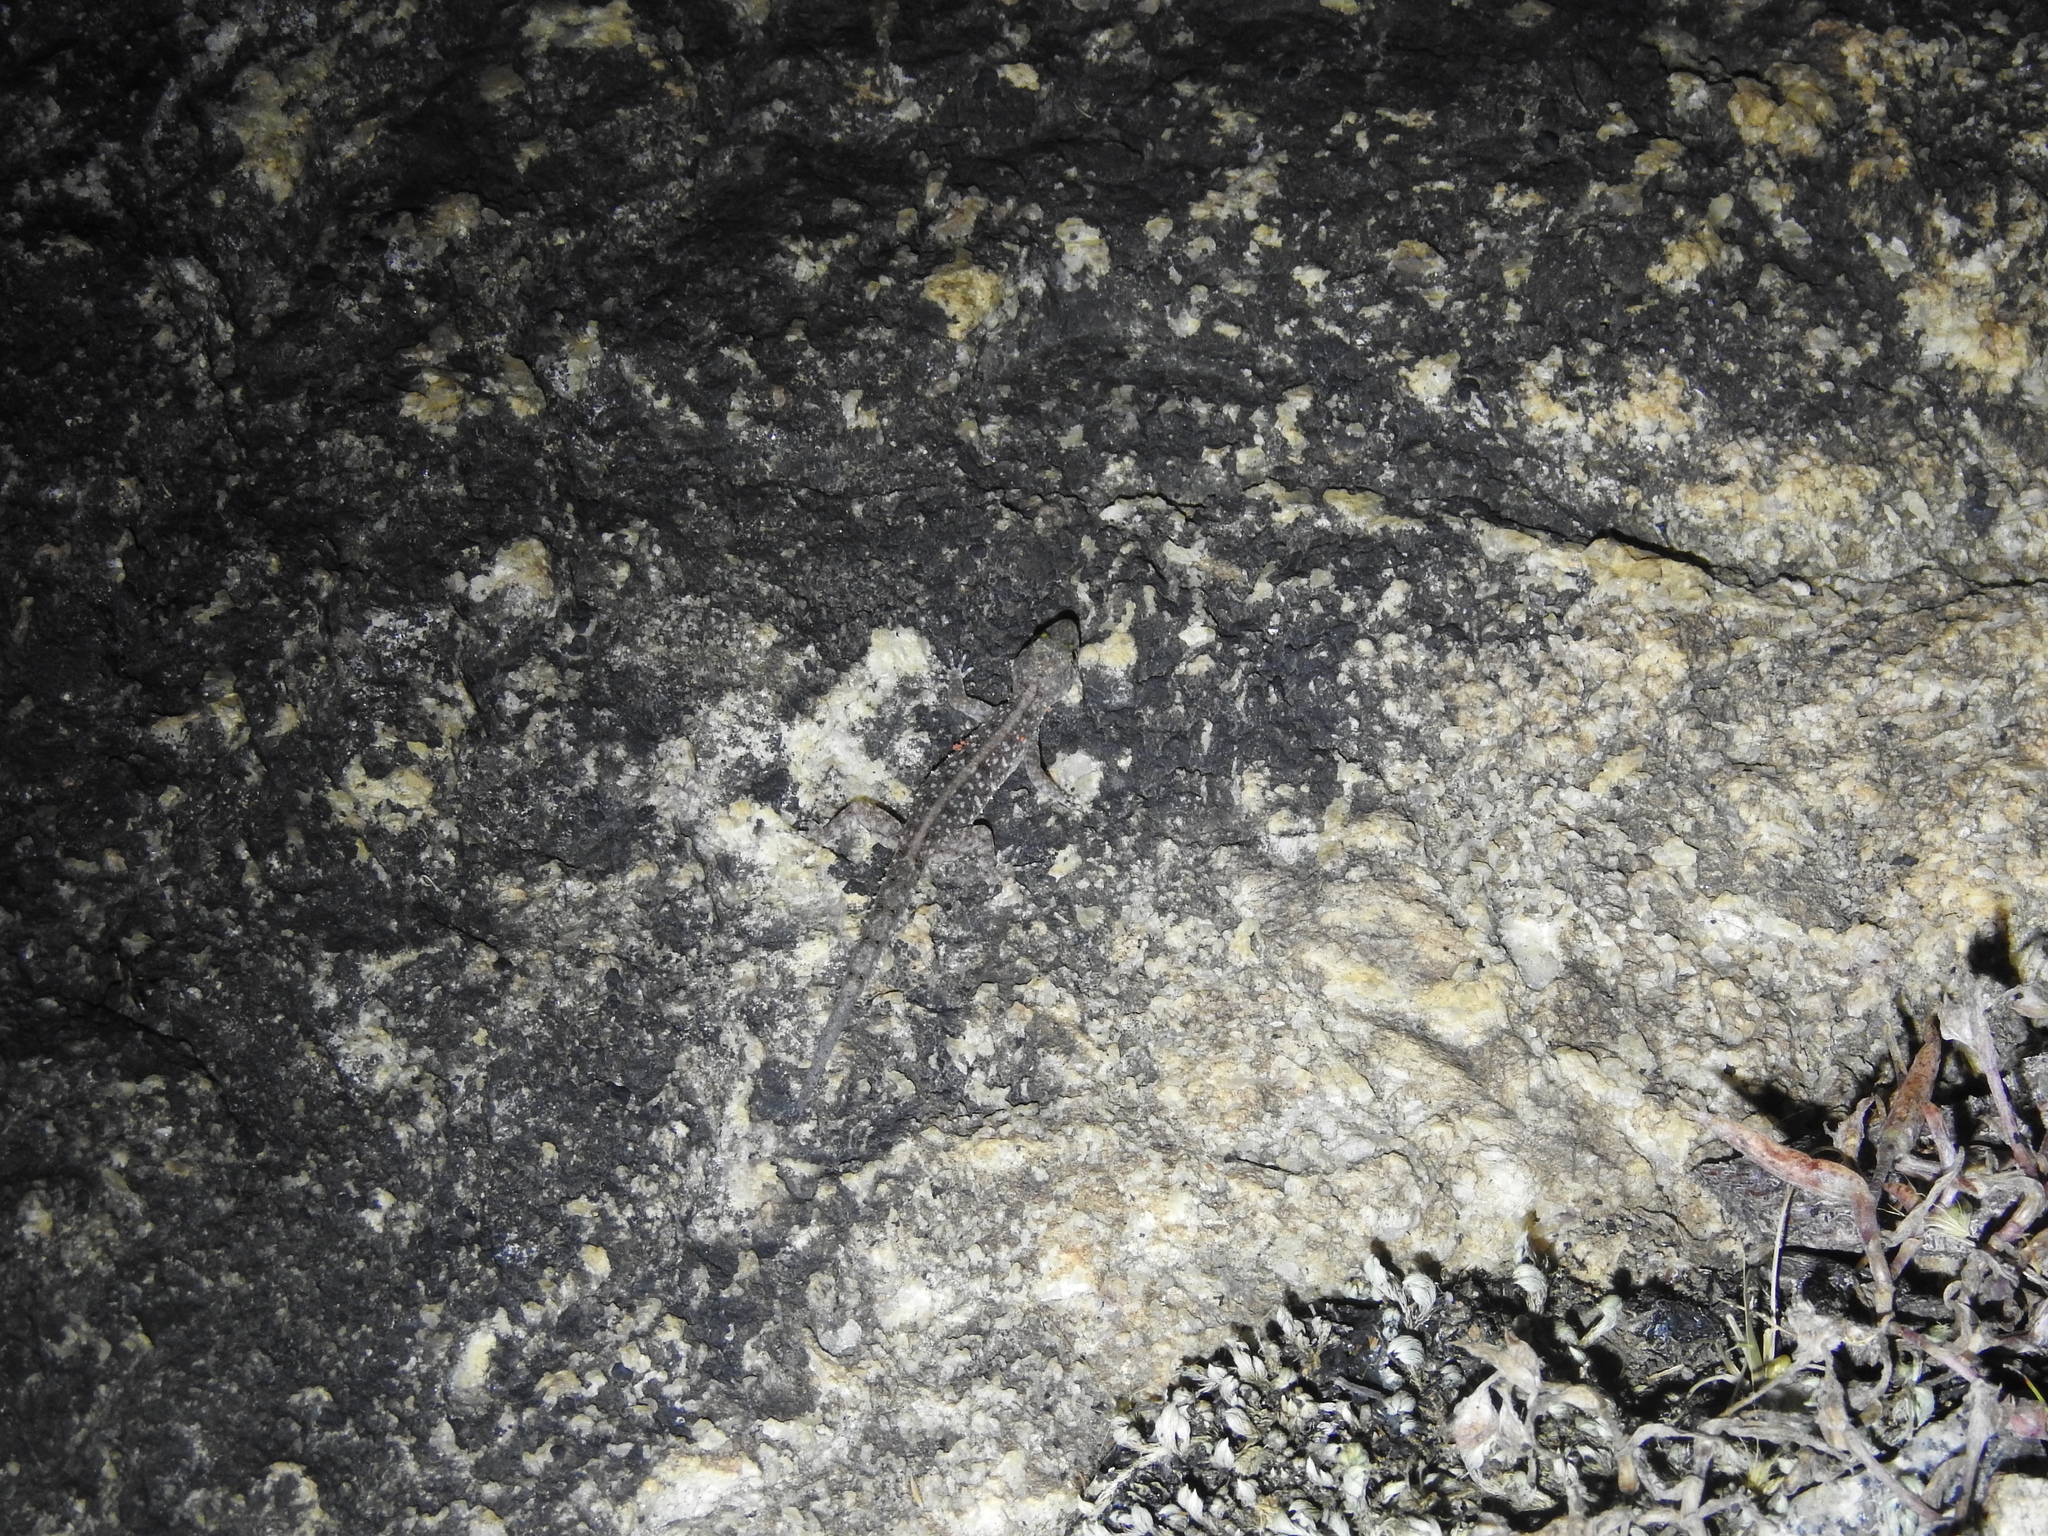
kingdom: Animalia
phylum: Chordata
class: Squamata
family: Gekkonidae
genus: Cnemaspis
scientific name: Cnemaspis mysoriensis
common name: Mysore day gecko
